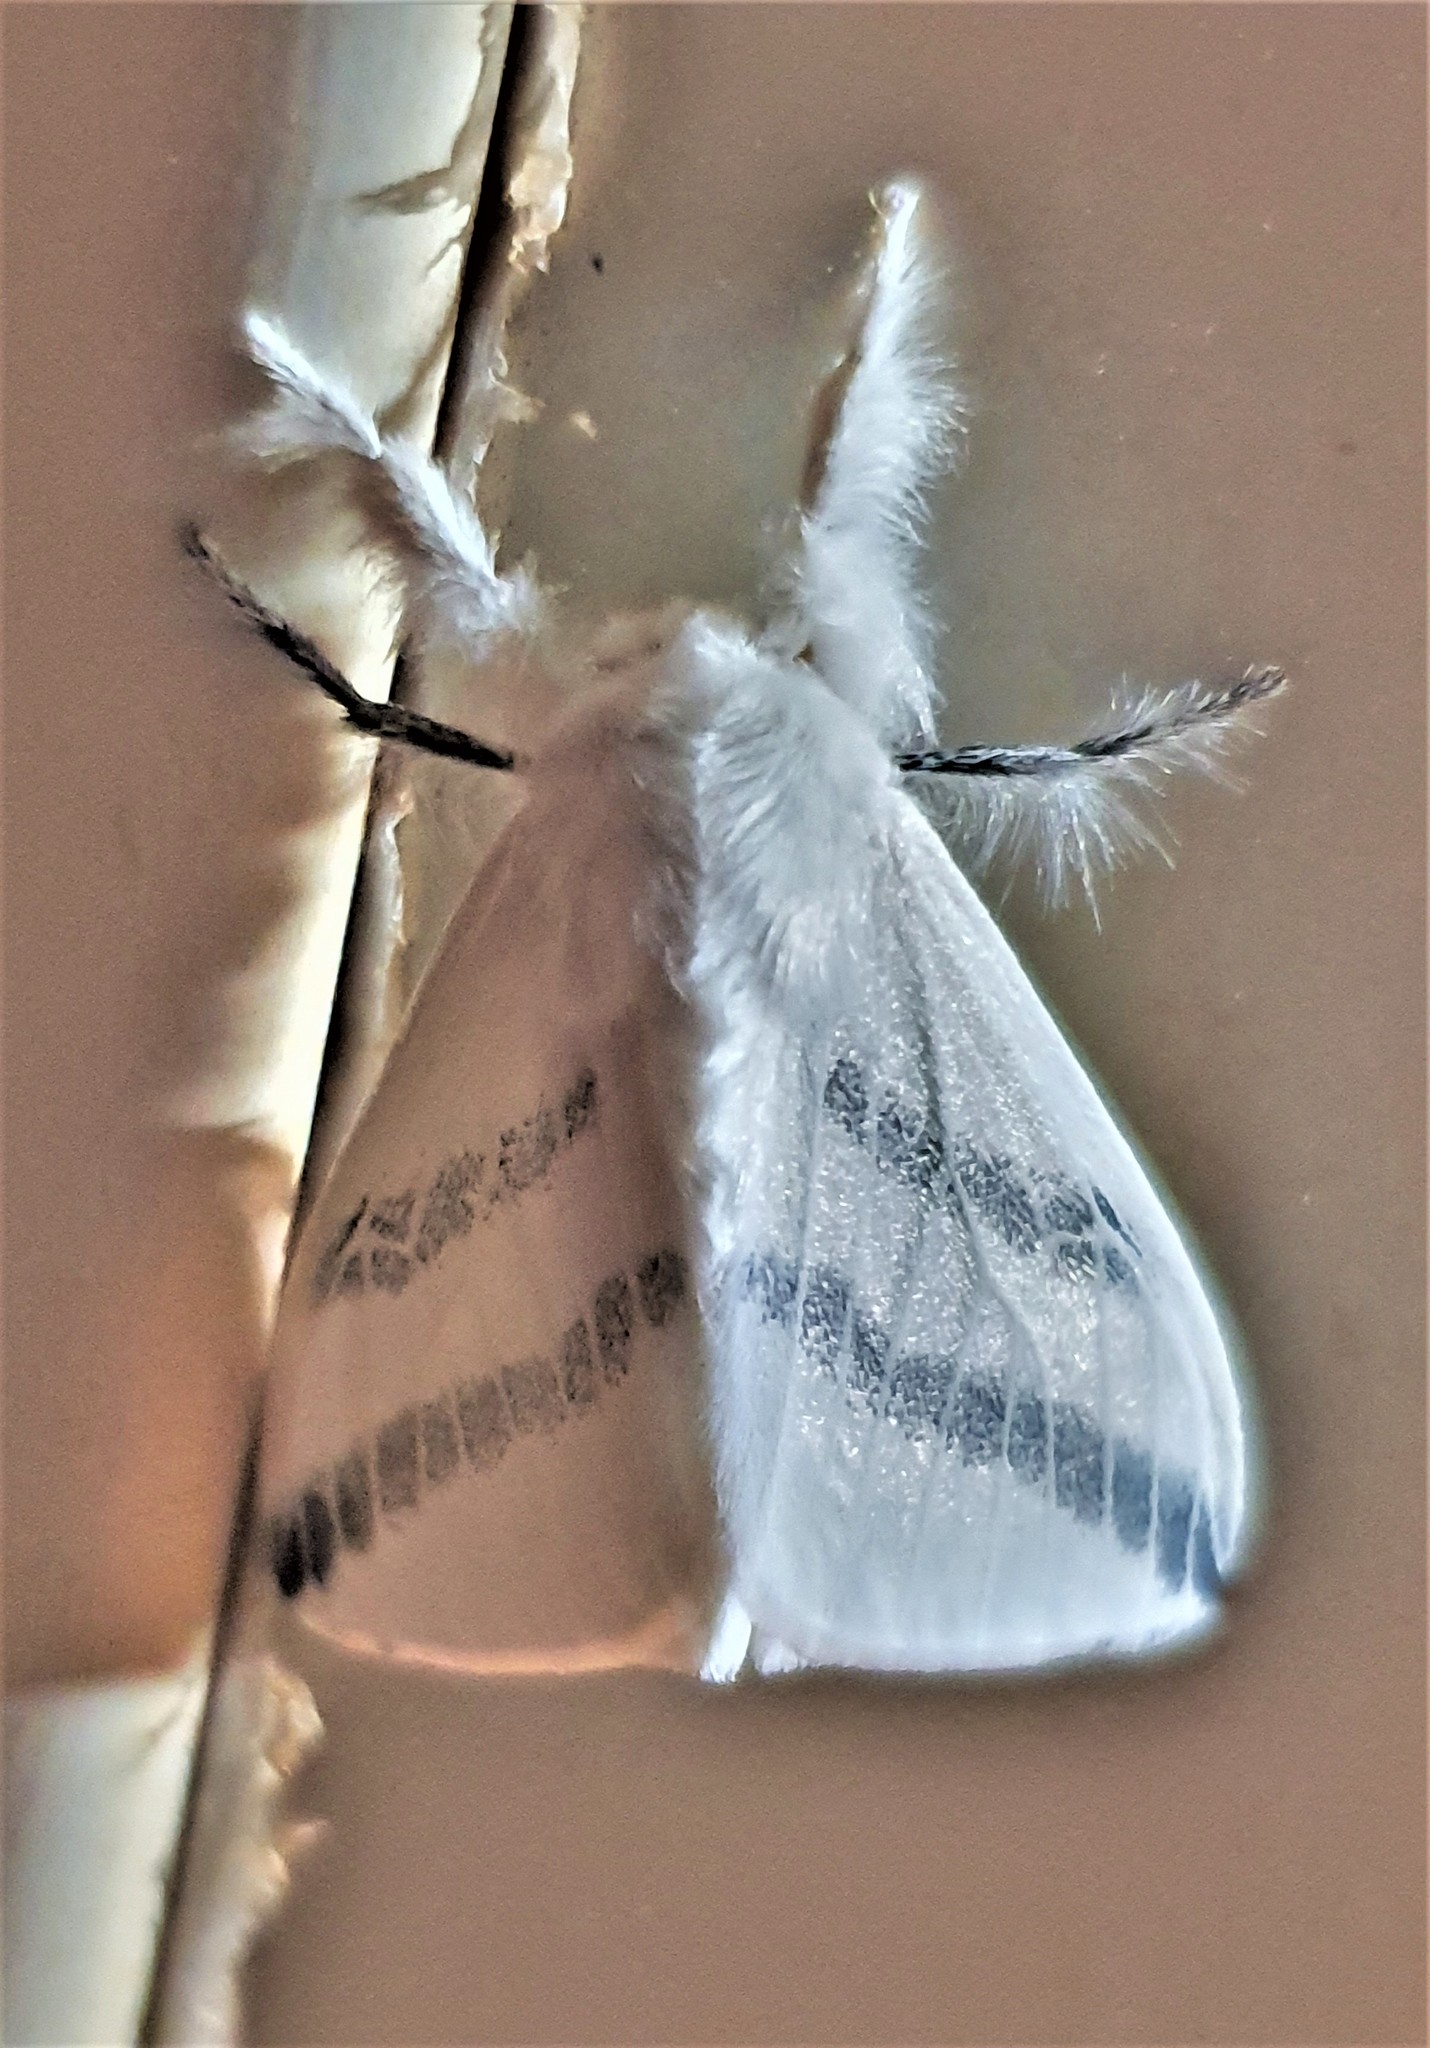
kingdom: Animalia
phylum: Arthropoda
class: Insecta
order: Lepidoptera
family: Erebidae
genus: Thagona
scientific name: Thagona crassilinea
